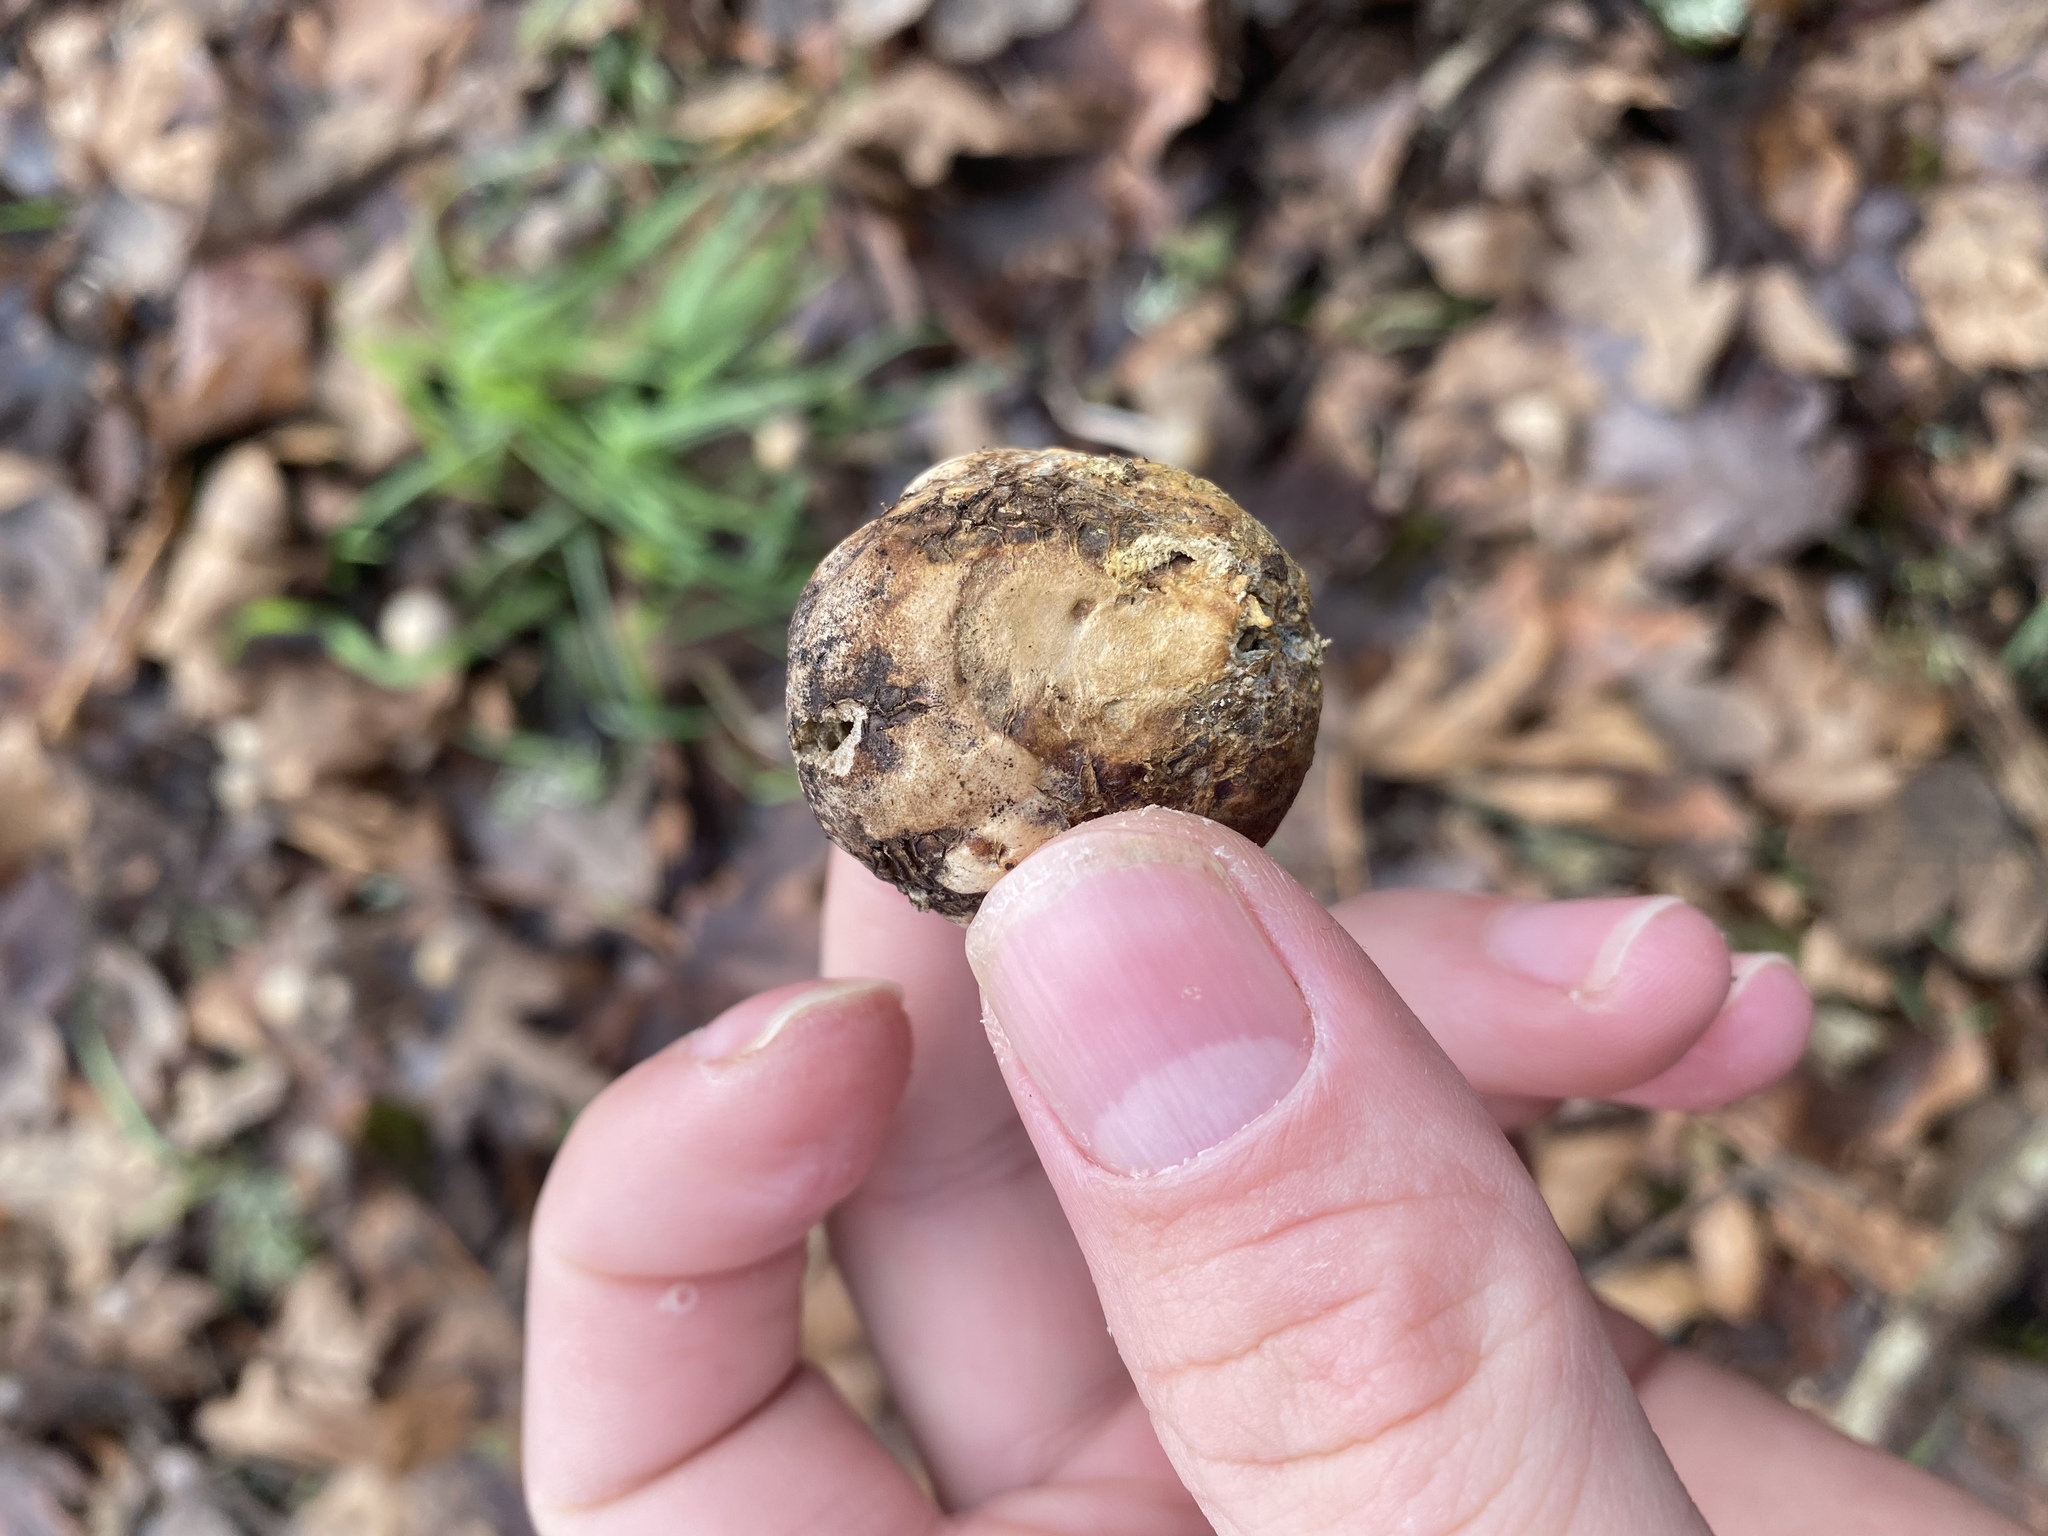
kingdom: Animalia
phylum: Arthropoda
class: Insecta
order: Hymenoptera
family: Cynipidae
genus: Andricus
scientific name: Andricus quercuscalifornicus
